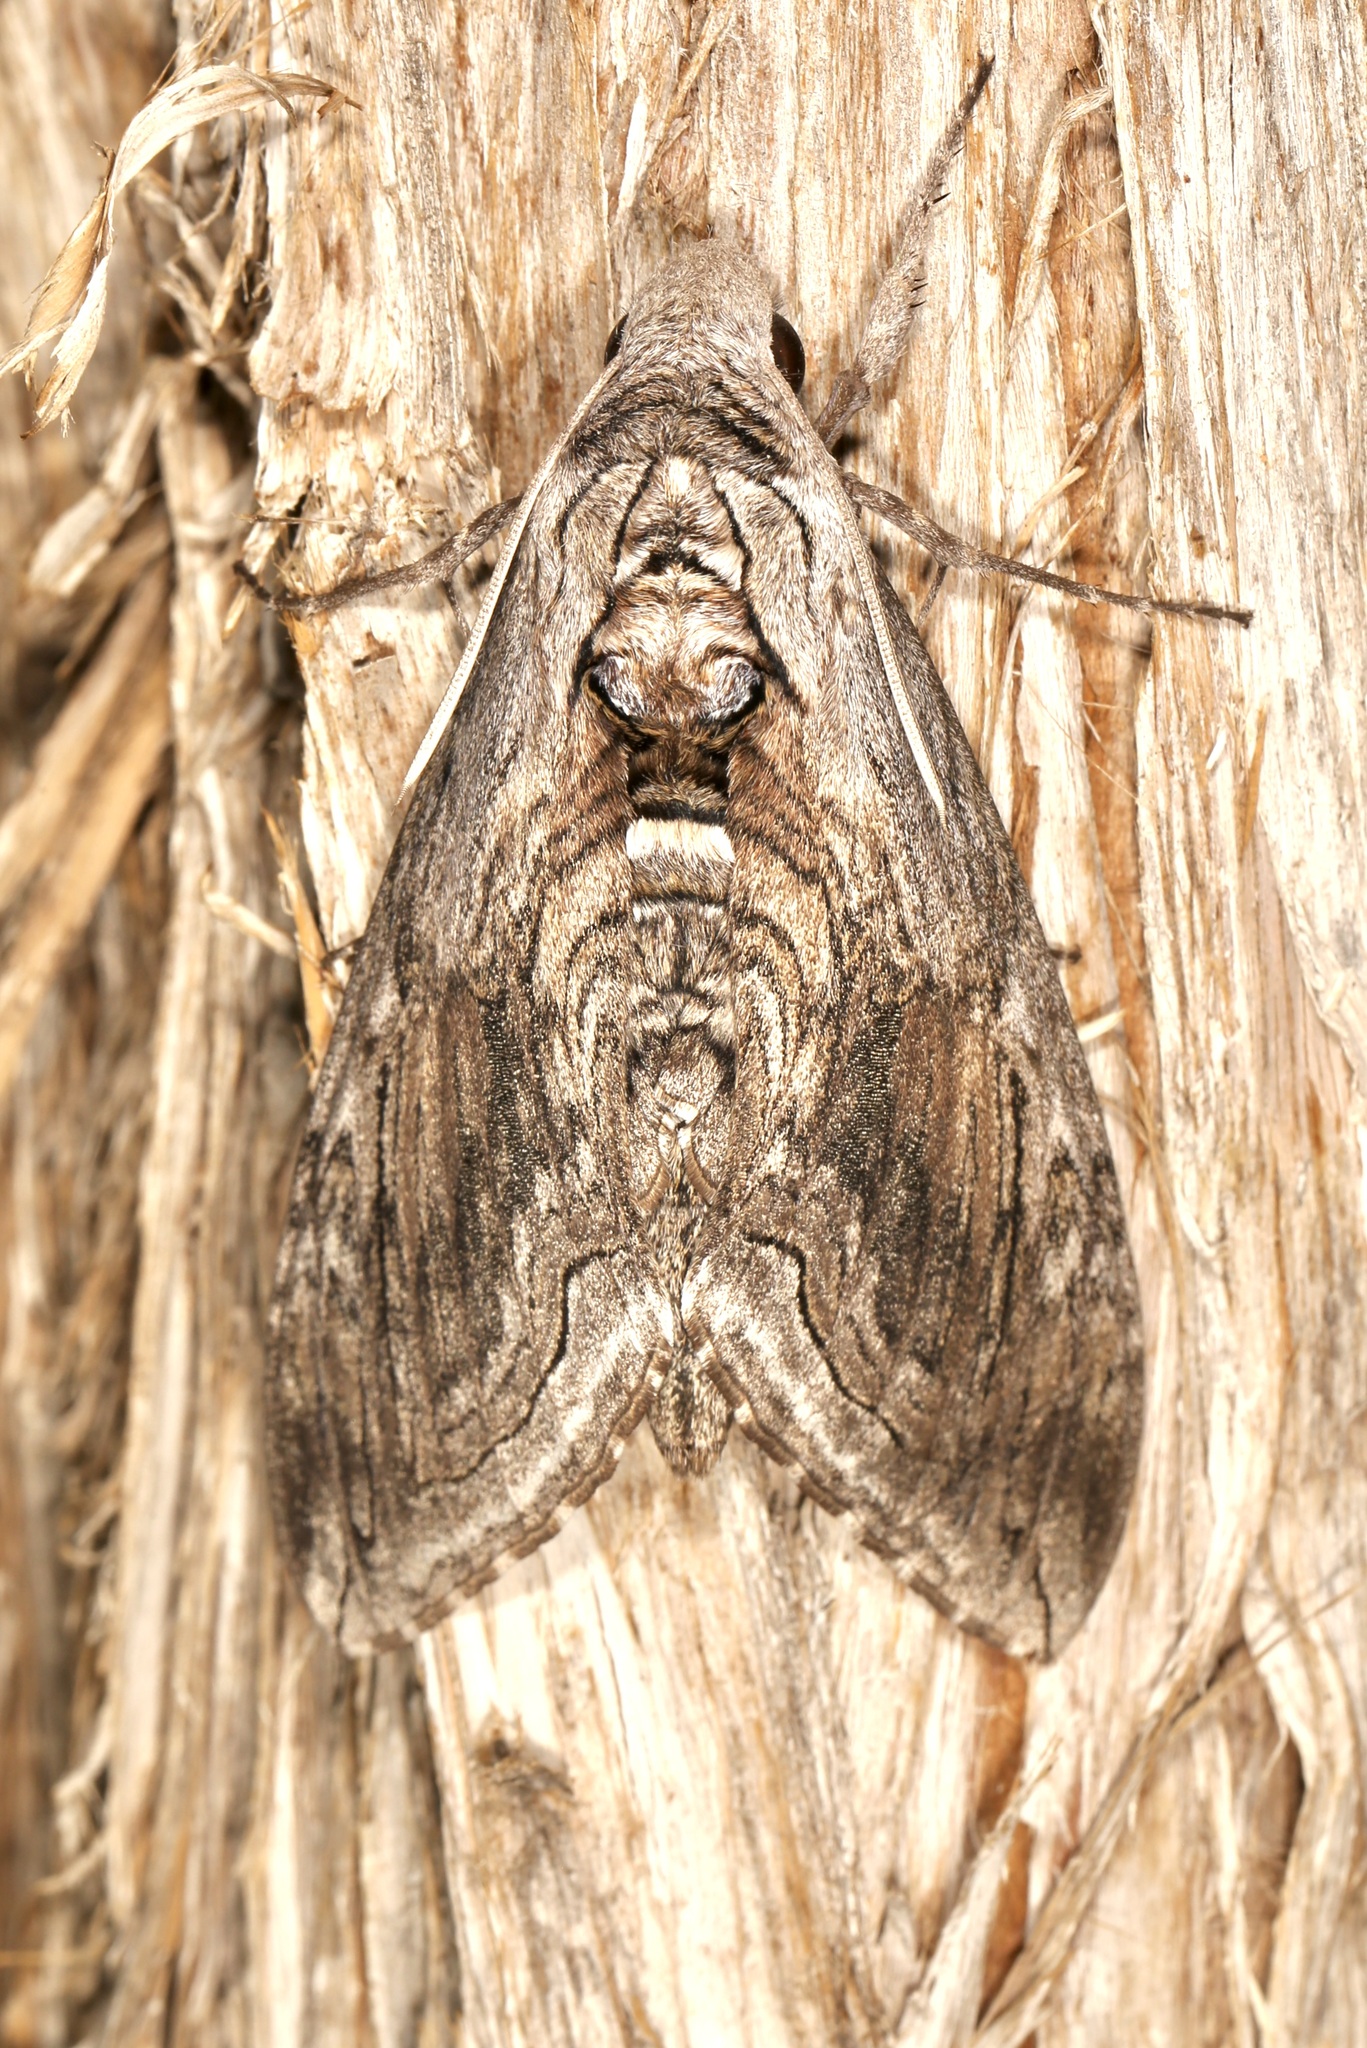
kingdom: Animalia
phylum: Arthropoda
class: Insecta
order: Lepidoptera
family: Sphingidae
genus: Manduca
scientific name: Manduca quinquemaculatus
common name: Five-spotted hawk-moth
